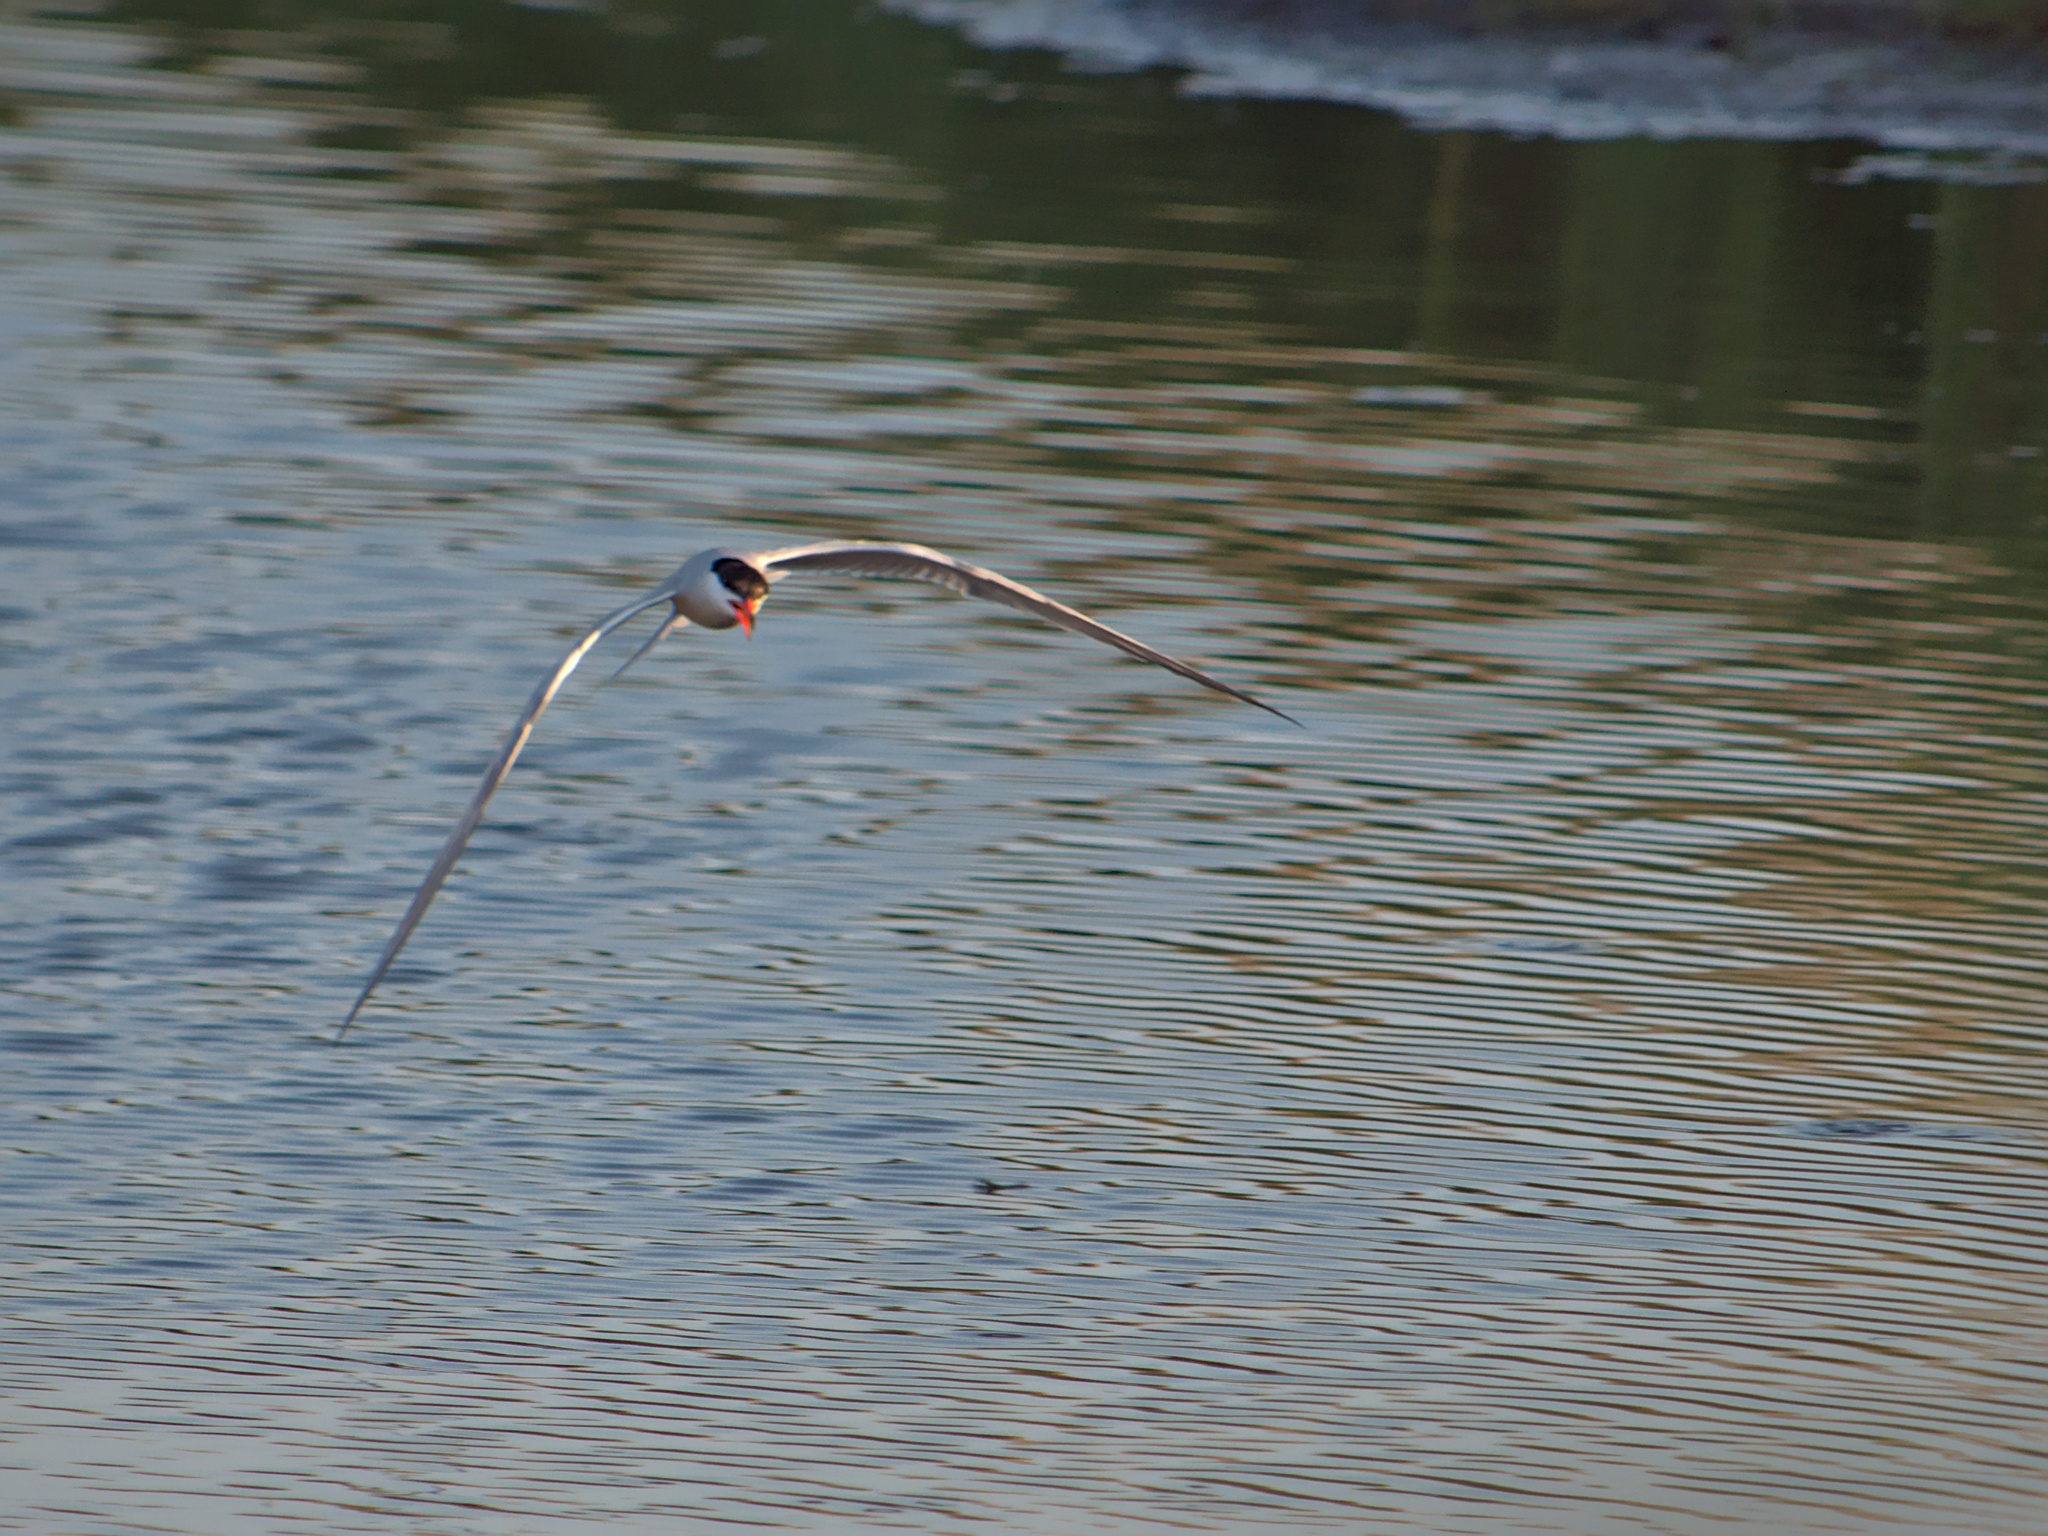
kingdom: Animalia
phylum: Chordata
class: Aves
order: Charadriiformes
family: Laridae
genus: Sterna
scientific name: Sterna hirundo
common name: Common tern
